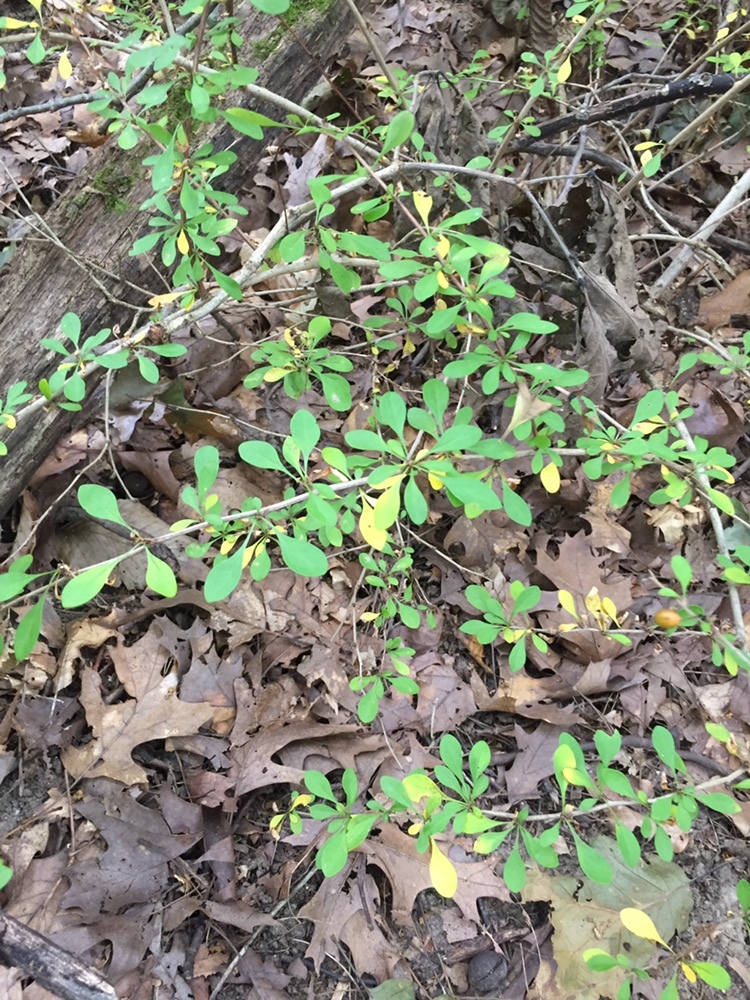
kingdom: Plantae
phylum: Tracheophyta
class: Magnoliopsida
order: Ranunculales
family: Berberidaceae
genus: Berberis
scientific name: Berberis thunbergii
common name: Japanese barberry
